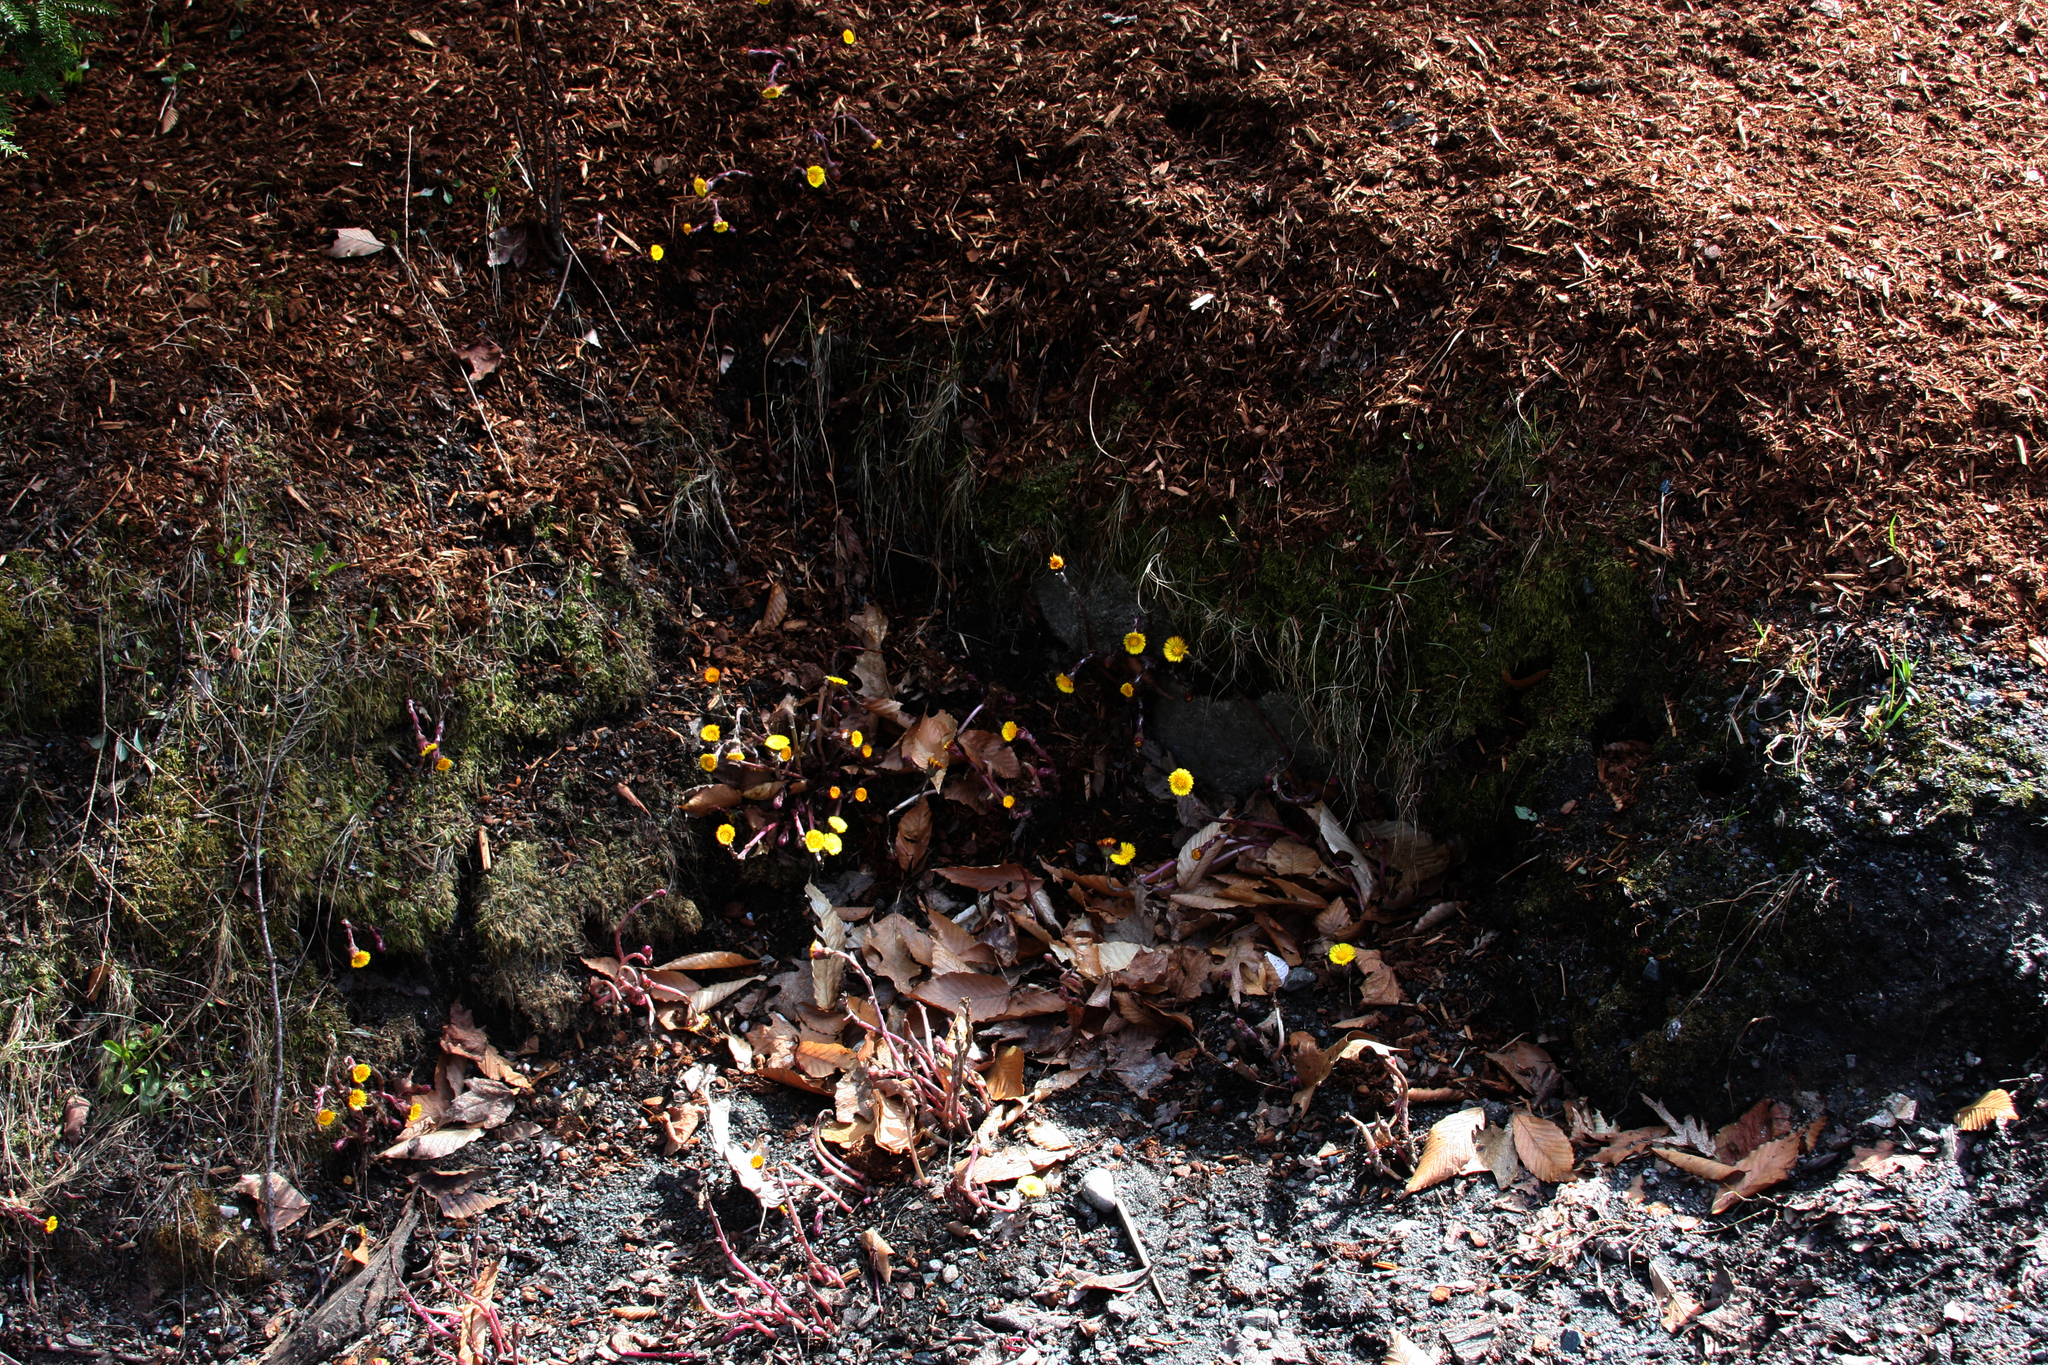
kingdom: Plantae
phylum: Tracheophyta
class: Magnoliopsida
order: Asterales
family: Asteraceae
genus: Tussilago
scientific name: Tussilago farfara
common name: Coltsfoot
